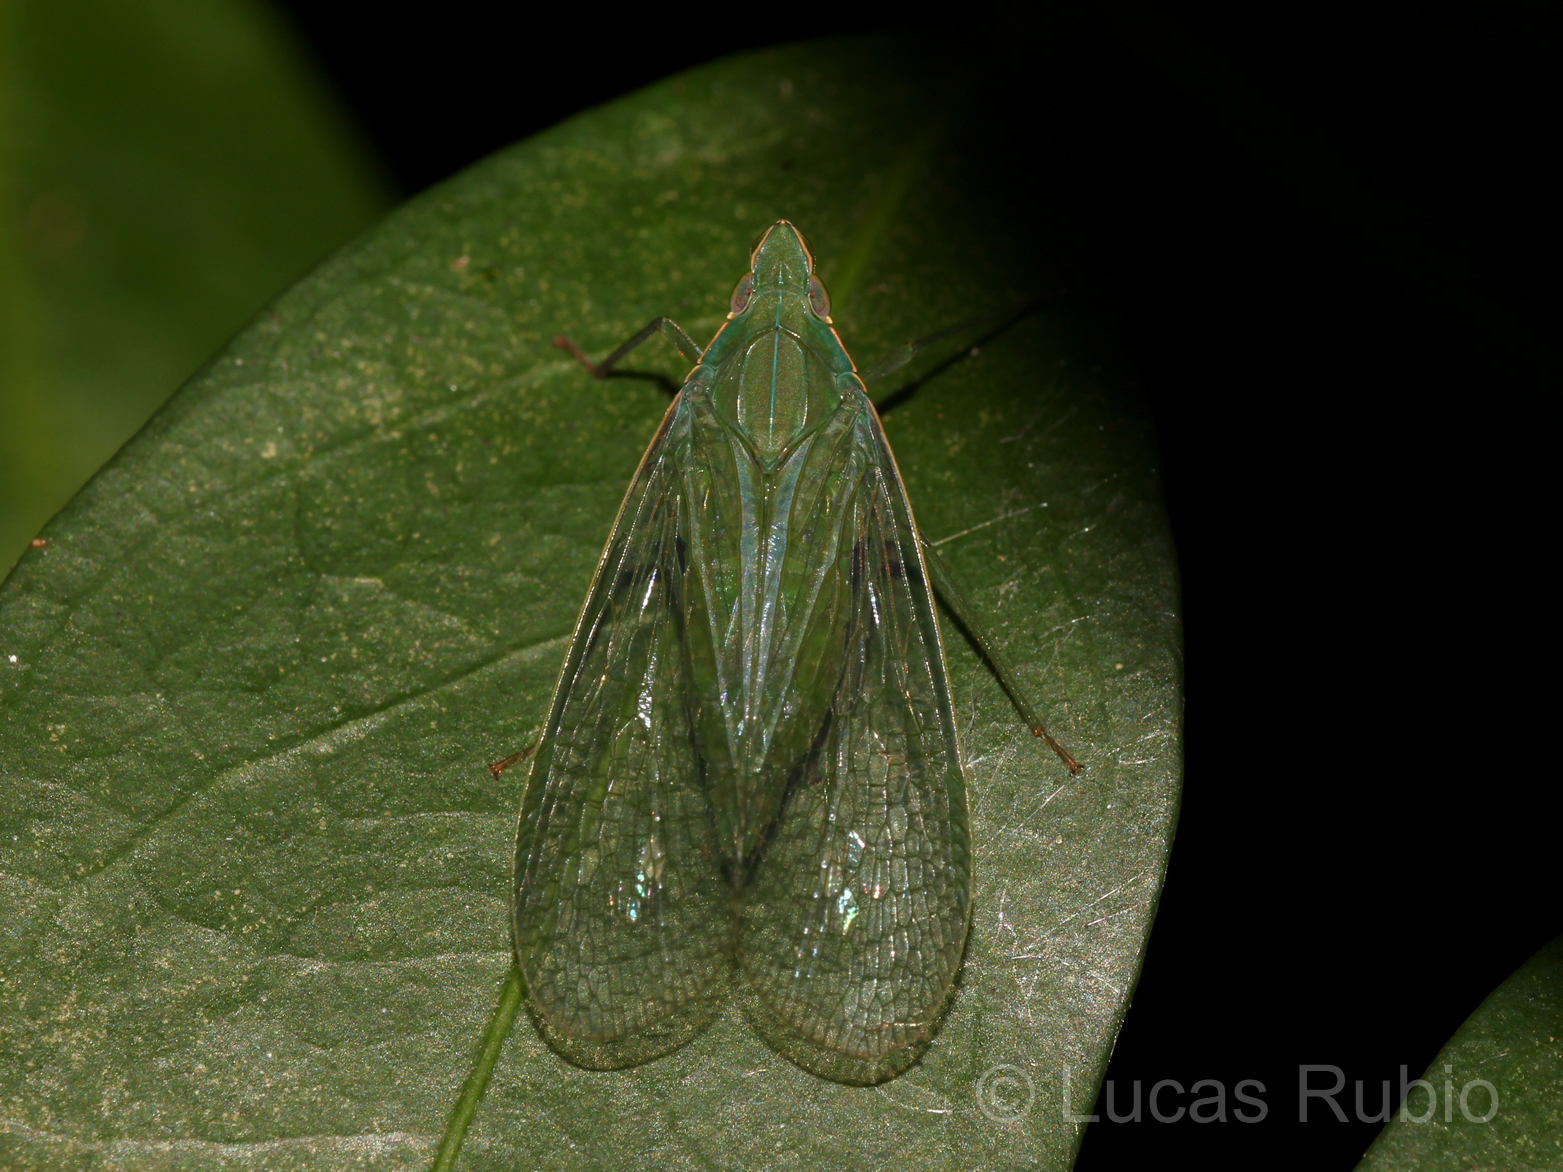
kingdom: Animalia
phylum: Arthropoda
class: Insecta
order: Hemiptera
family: Dictyopharidae
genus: Pteroplegma
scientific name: Pteroplegma jacobania
